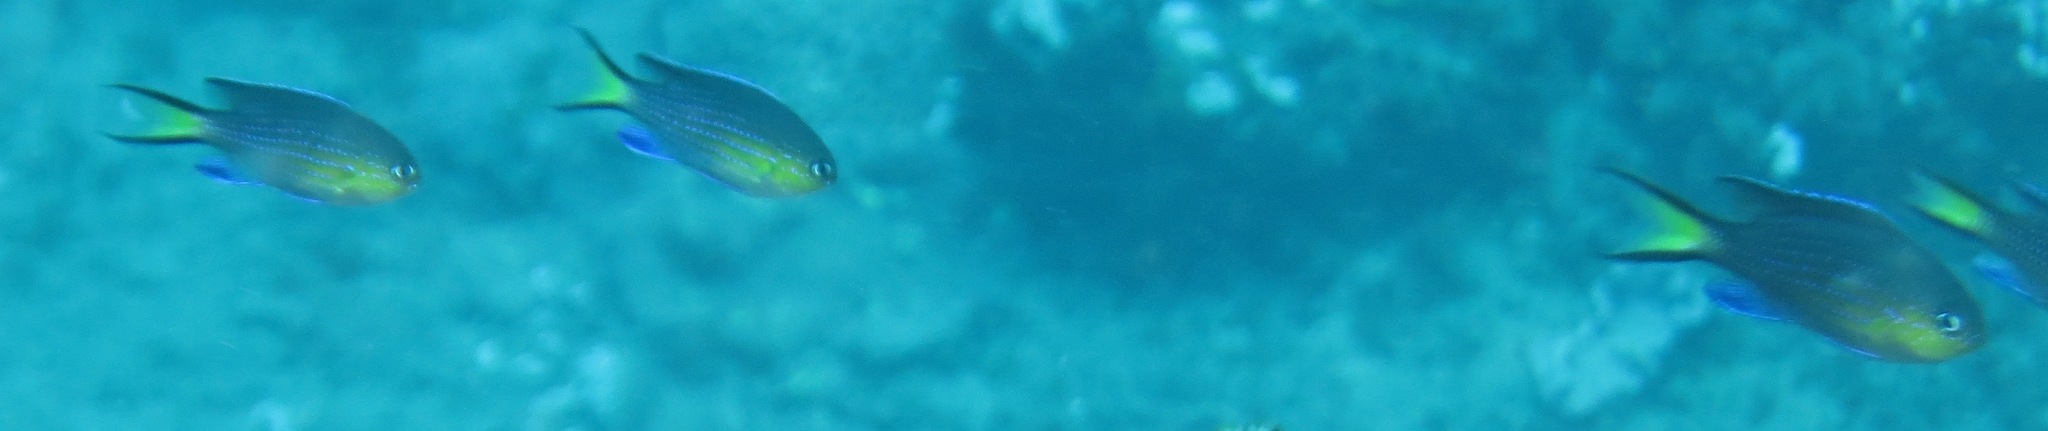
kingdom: Animalia
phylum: Chordata
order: Perciformes
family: Pomacentridae
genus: Chromis
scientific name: Chromis nigrura
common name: Blacktail chromis
